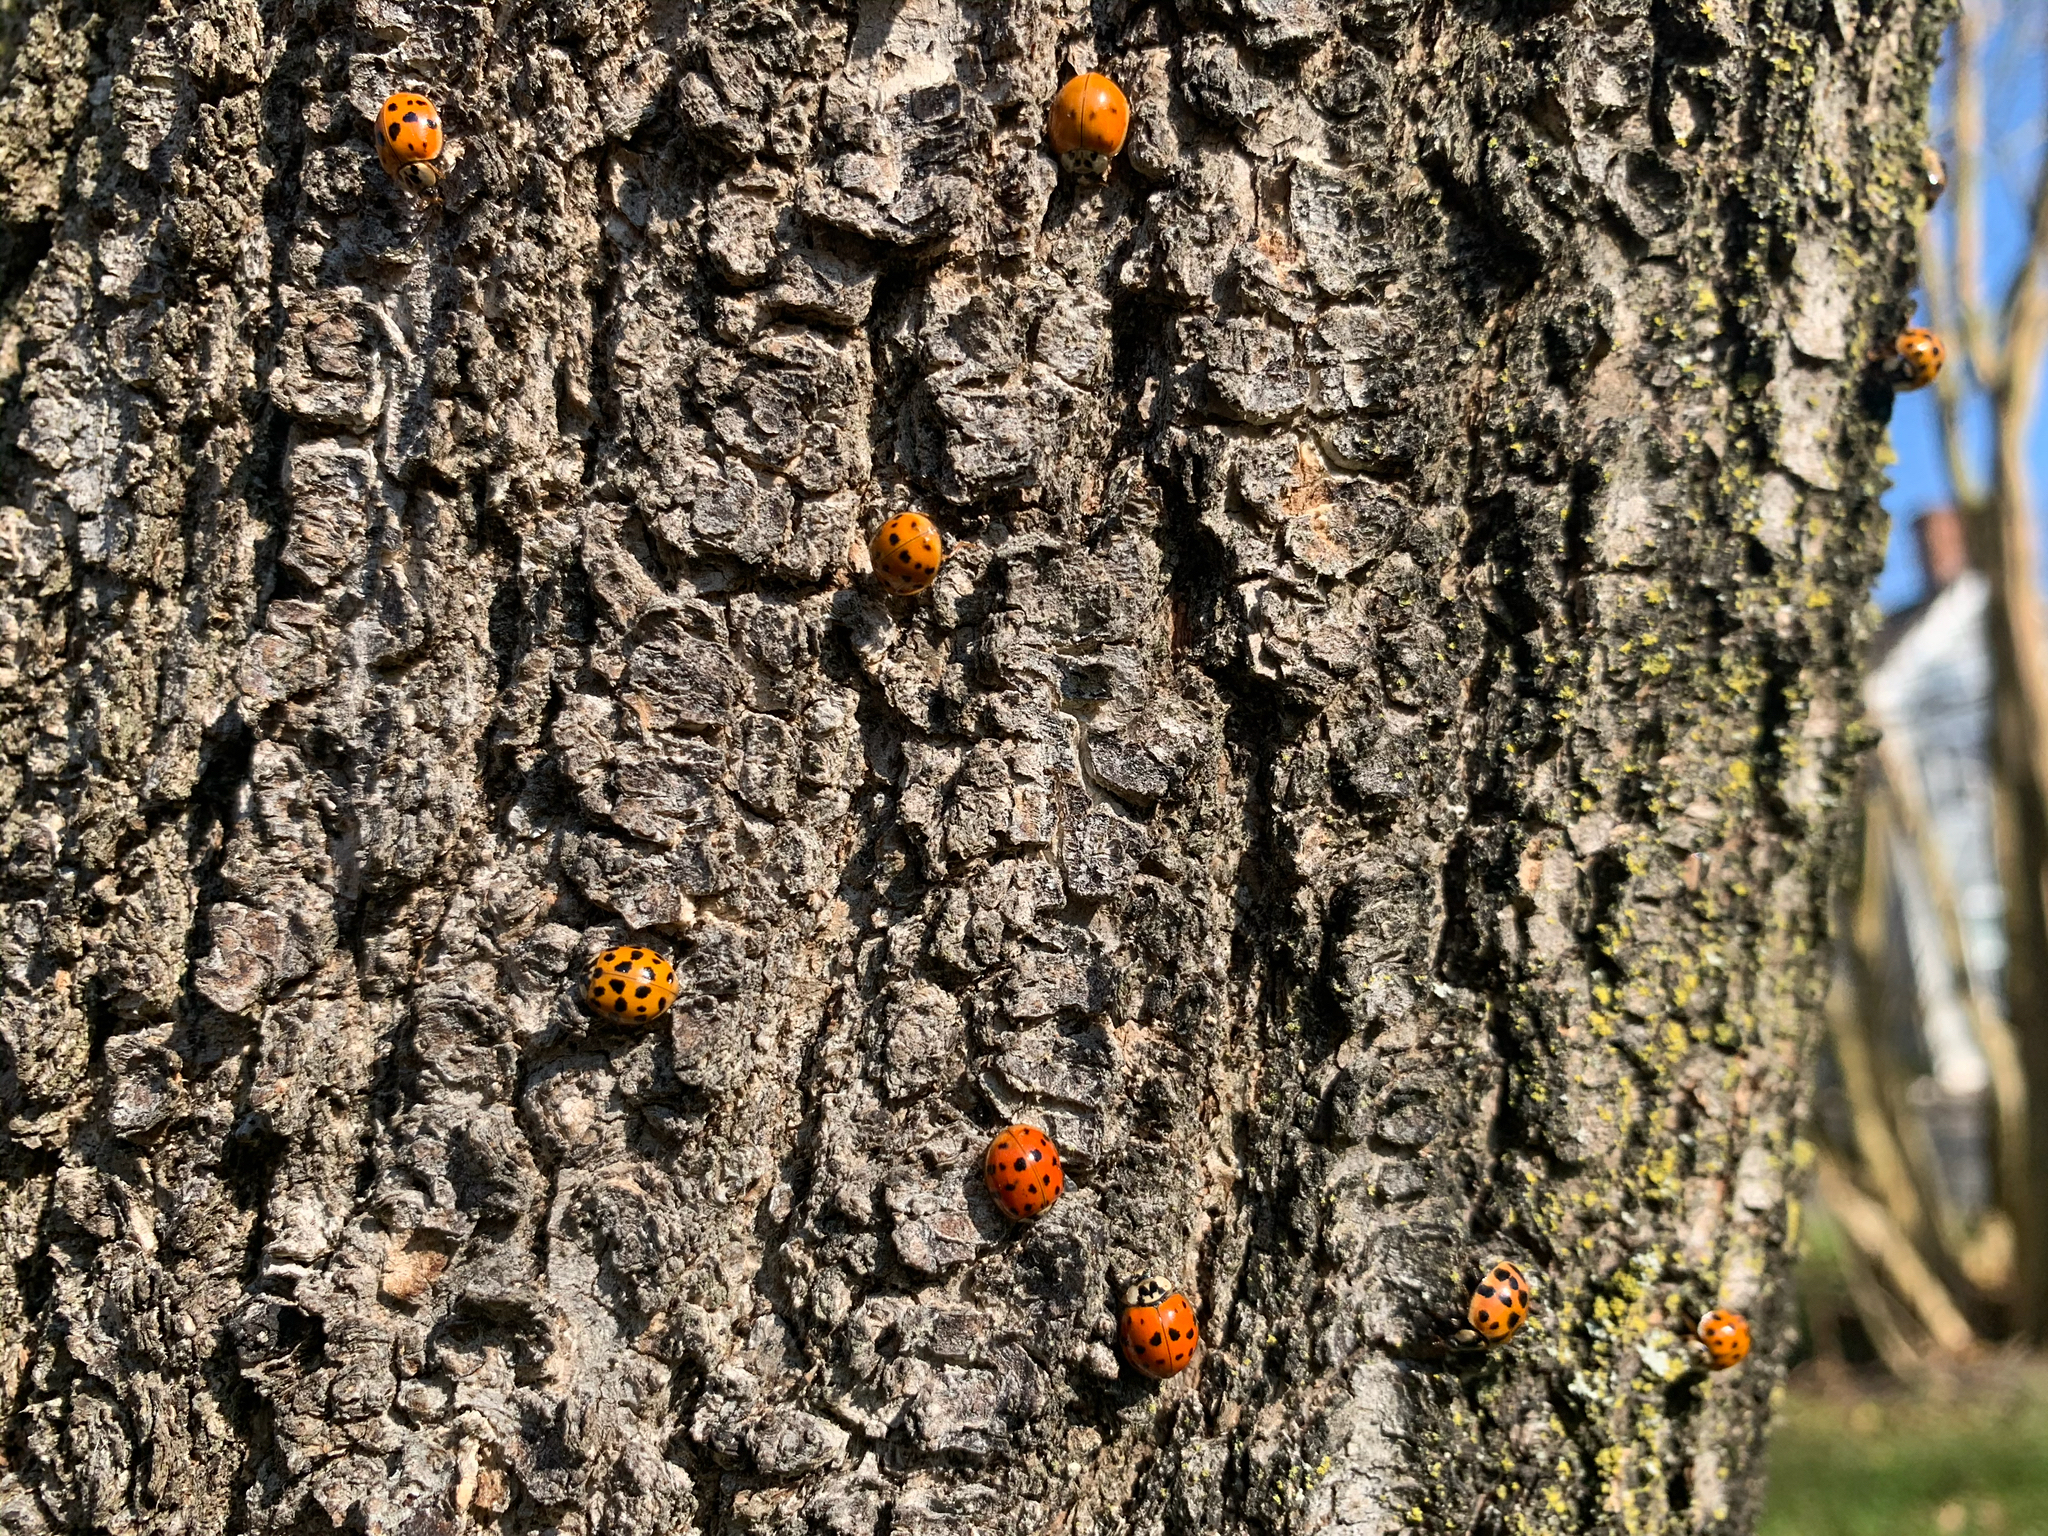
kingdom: Animalia
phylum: Arthropoda
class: Insecta
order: Coleoptera
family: Coccinellidae
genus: Harmonia
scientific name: Harmonia axyridis
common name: Harlequin ladybird
